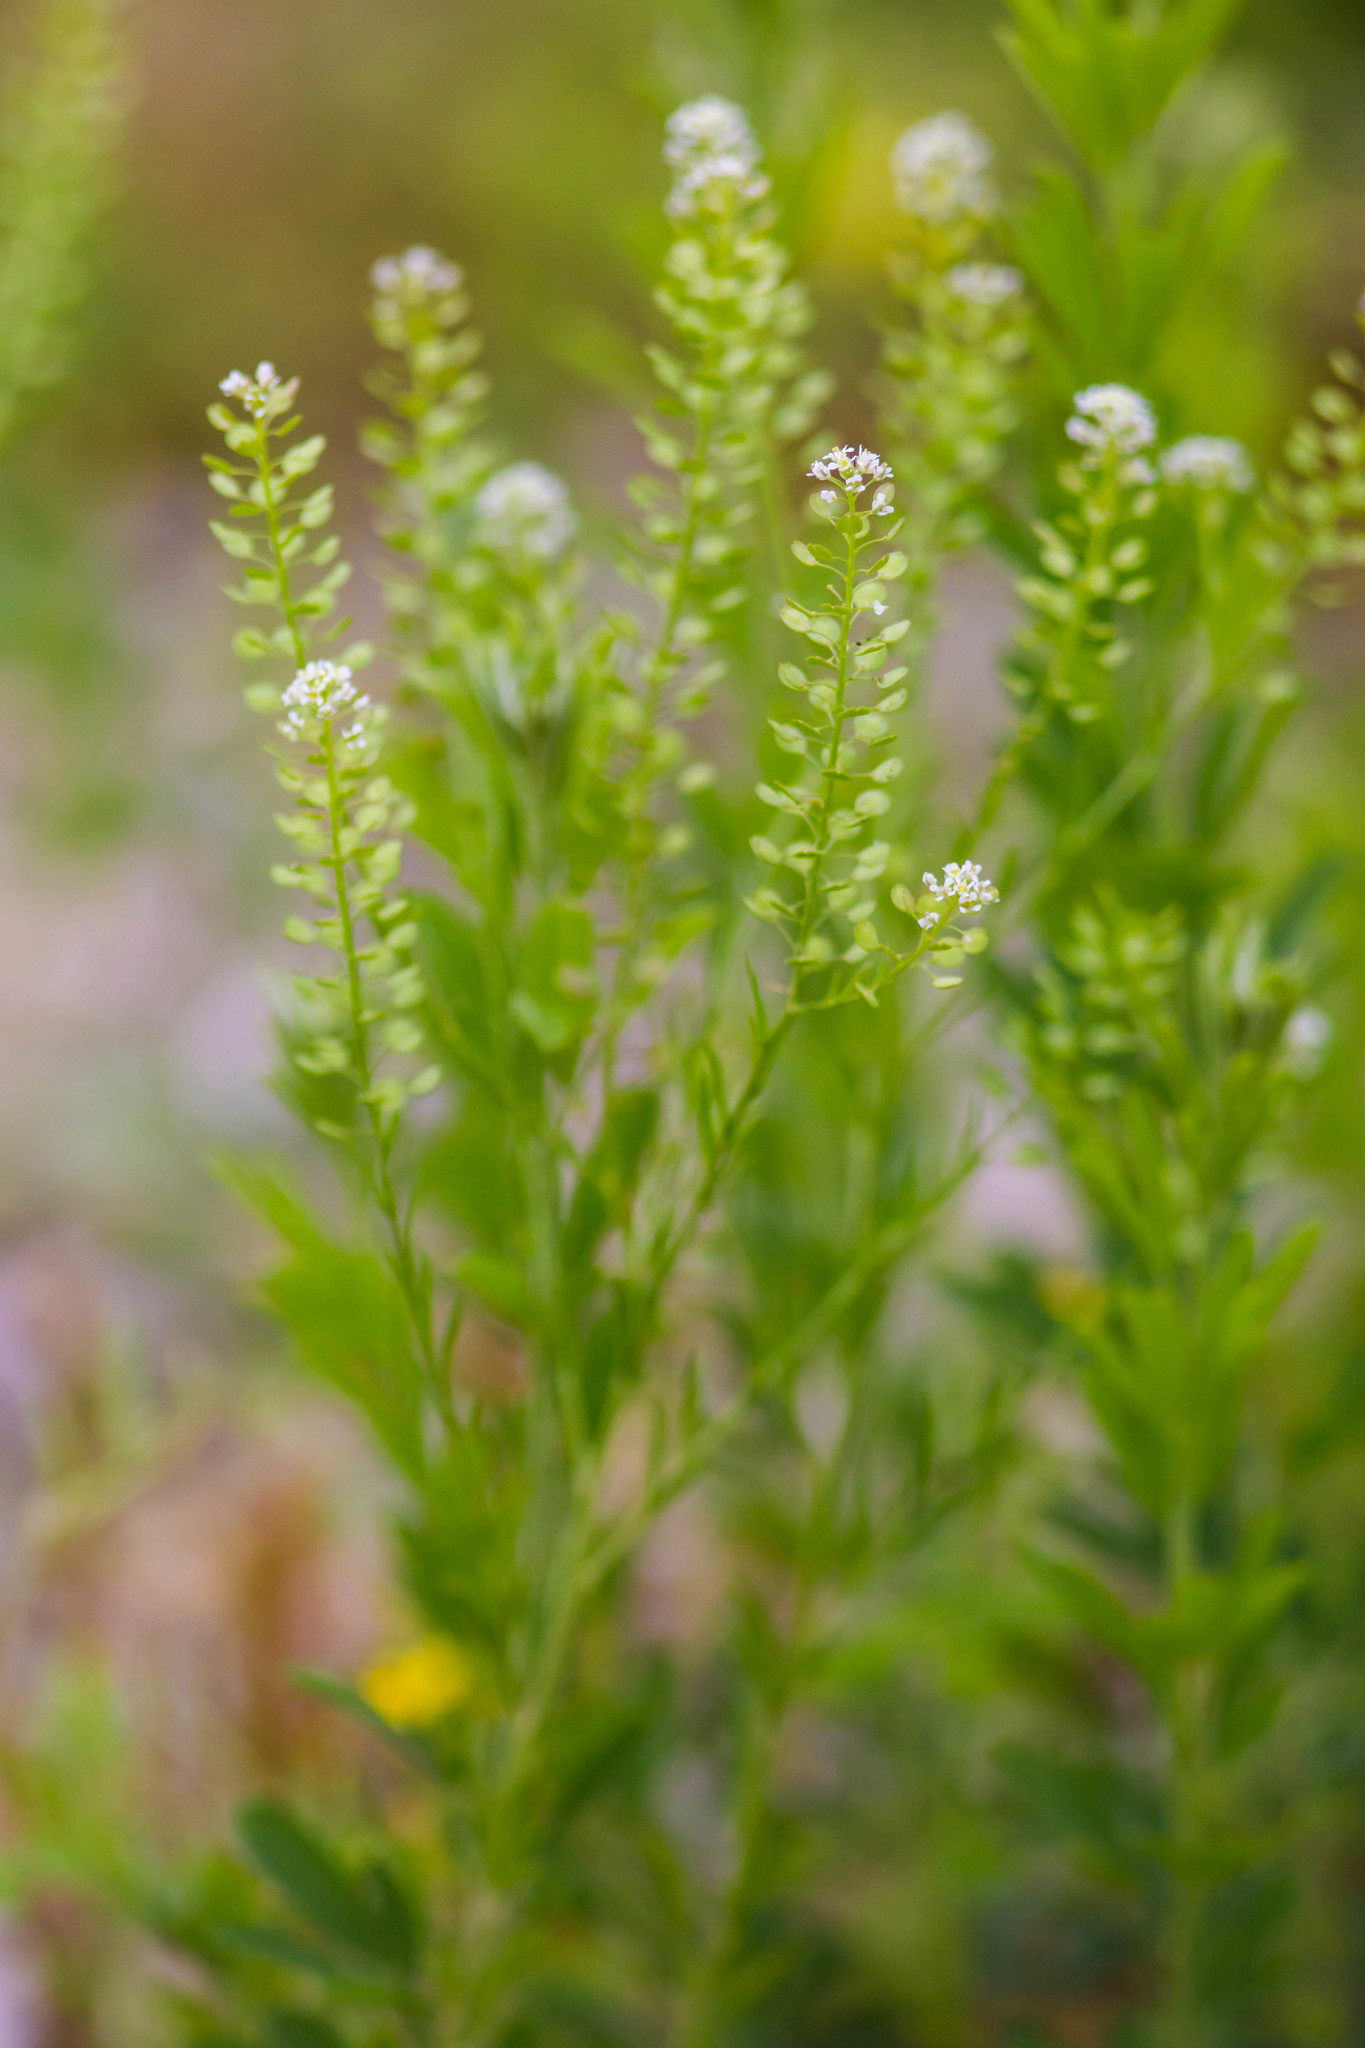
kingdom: Plantae
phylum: Tracheophyta
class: Magnoliopsida
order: Brassicales
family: Brassicaceae
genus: Lepidium
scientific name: Lepidium virginicum
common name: Least pepperwort
